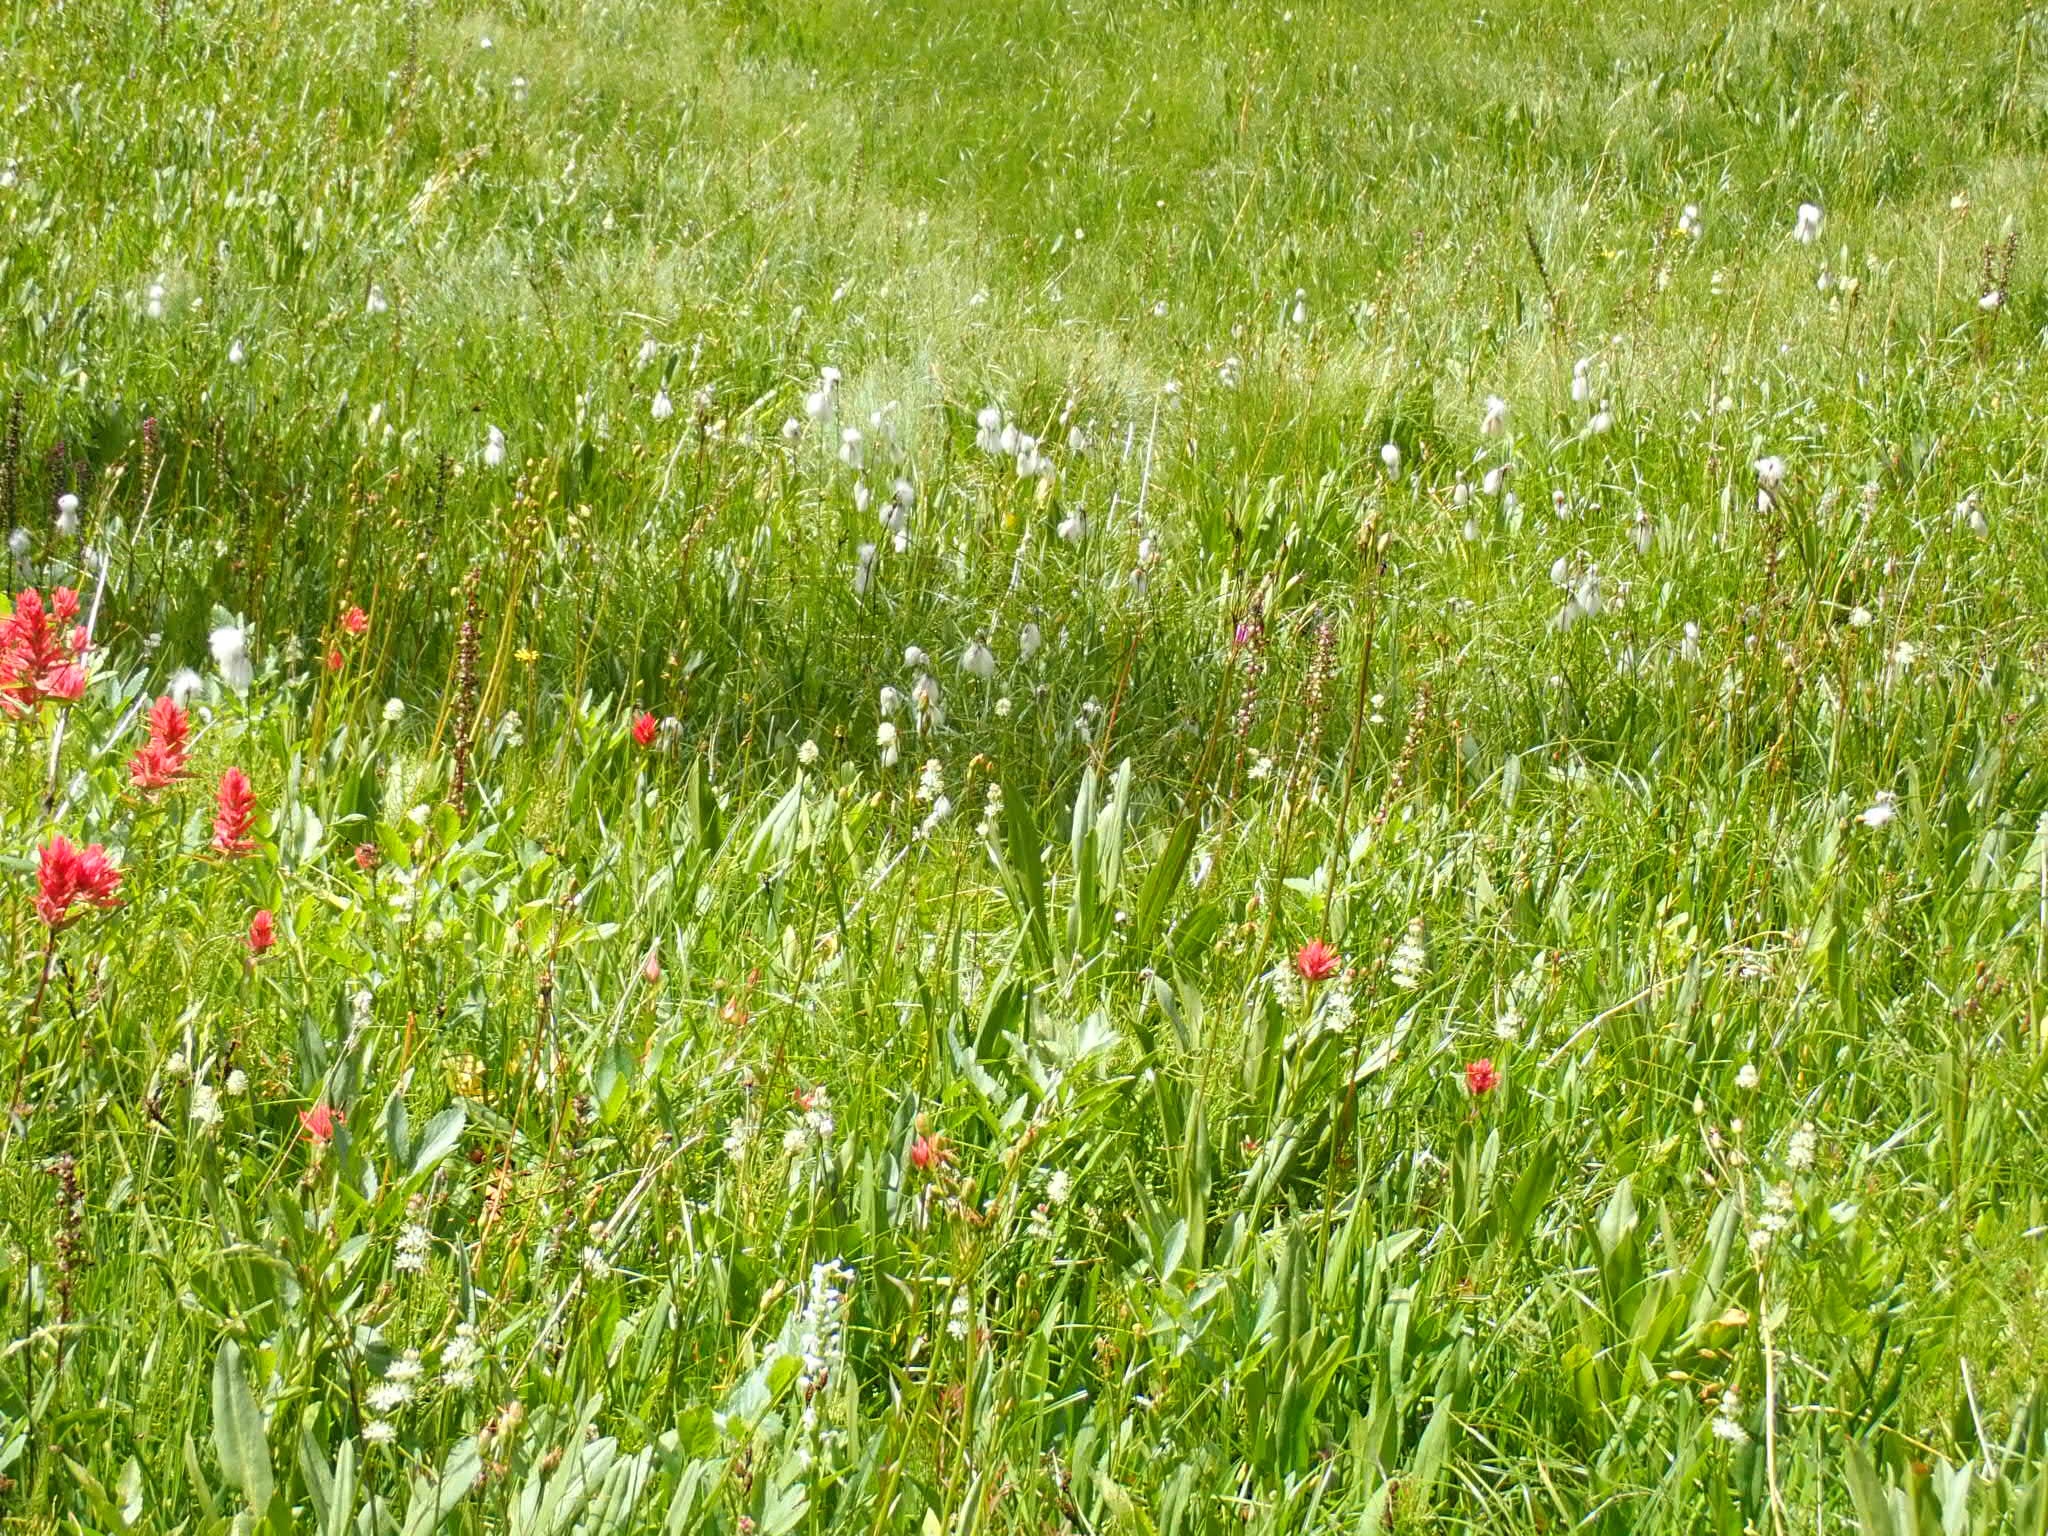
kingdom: Plantae
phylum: Tracheophyta
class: Liliopsida
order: Poales
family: Cyperaceae
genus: Eriophorum
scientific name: Eriophorum angustifolium
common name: Common cottongrass
